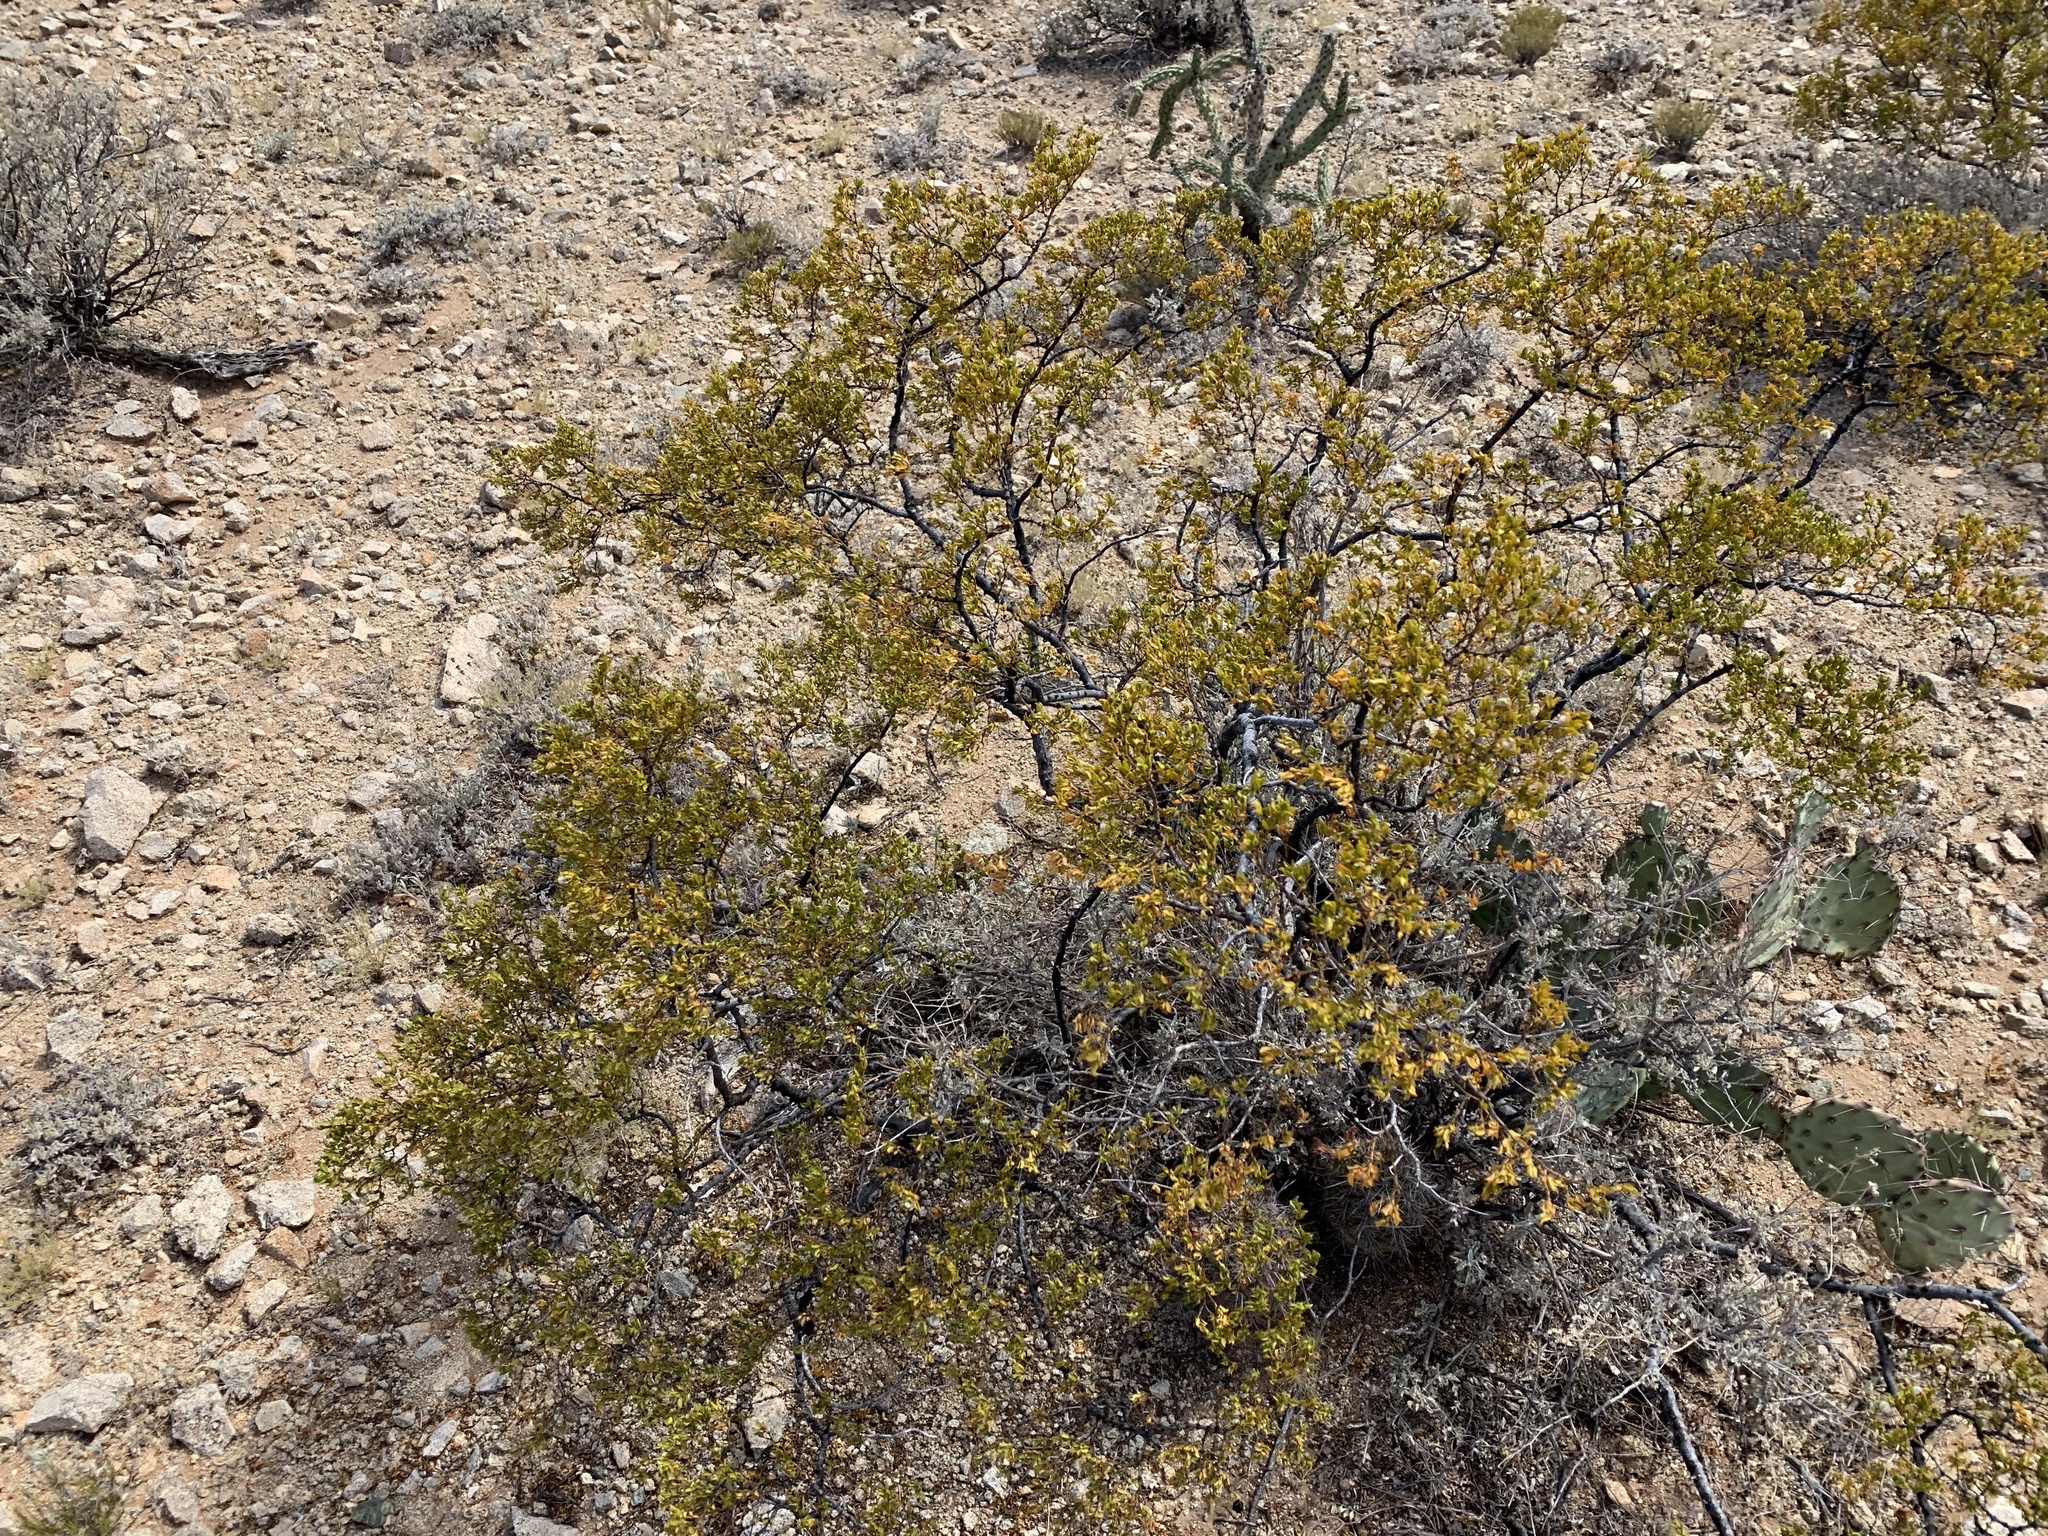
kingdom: Plantae
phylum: Tracheophyta
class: Magnoliopsida
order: Zygophyllales
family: Zygophyllaceae
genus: Larrea
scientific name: Larrea tridentata
